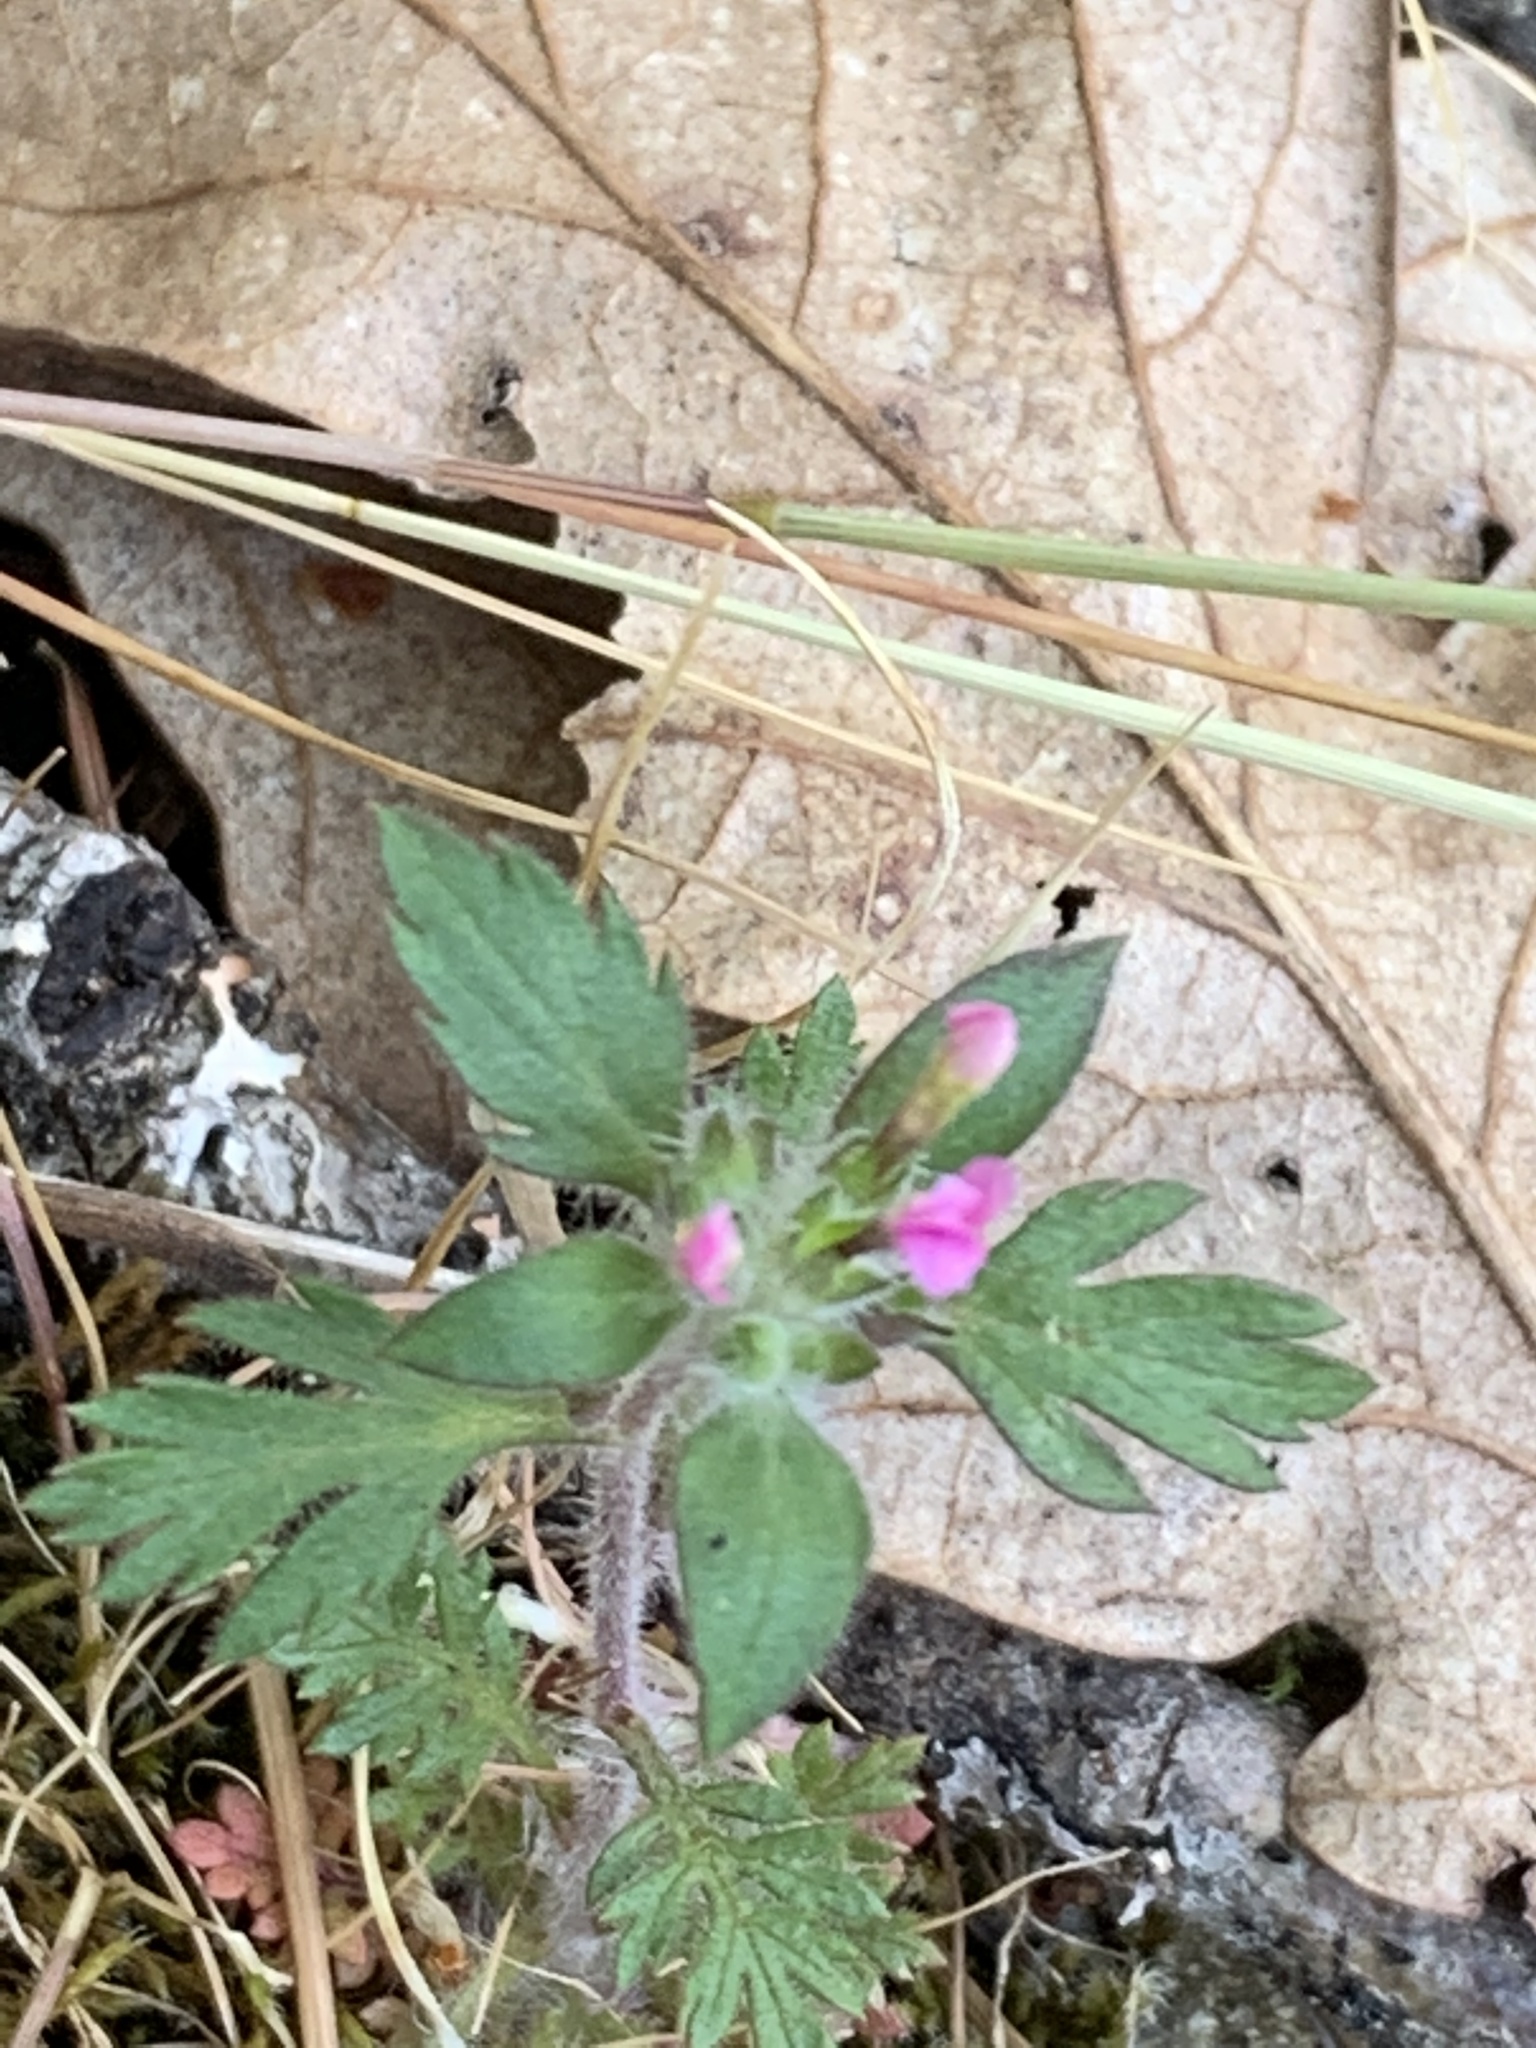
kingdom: Plantae
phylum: Tracheophyta
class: Magnoliopsida
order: Ericales
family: Polemoniaceae
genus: Collomia
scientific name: Collomia heterophylla
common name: Variable-leaved collomia
